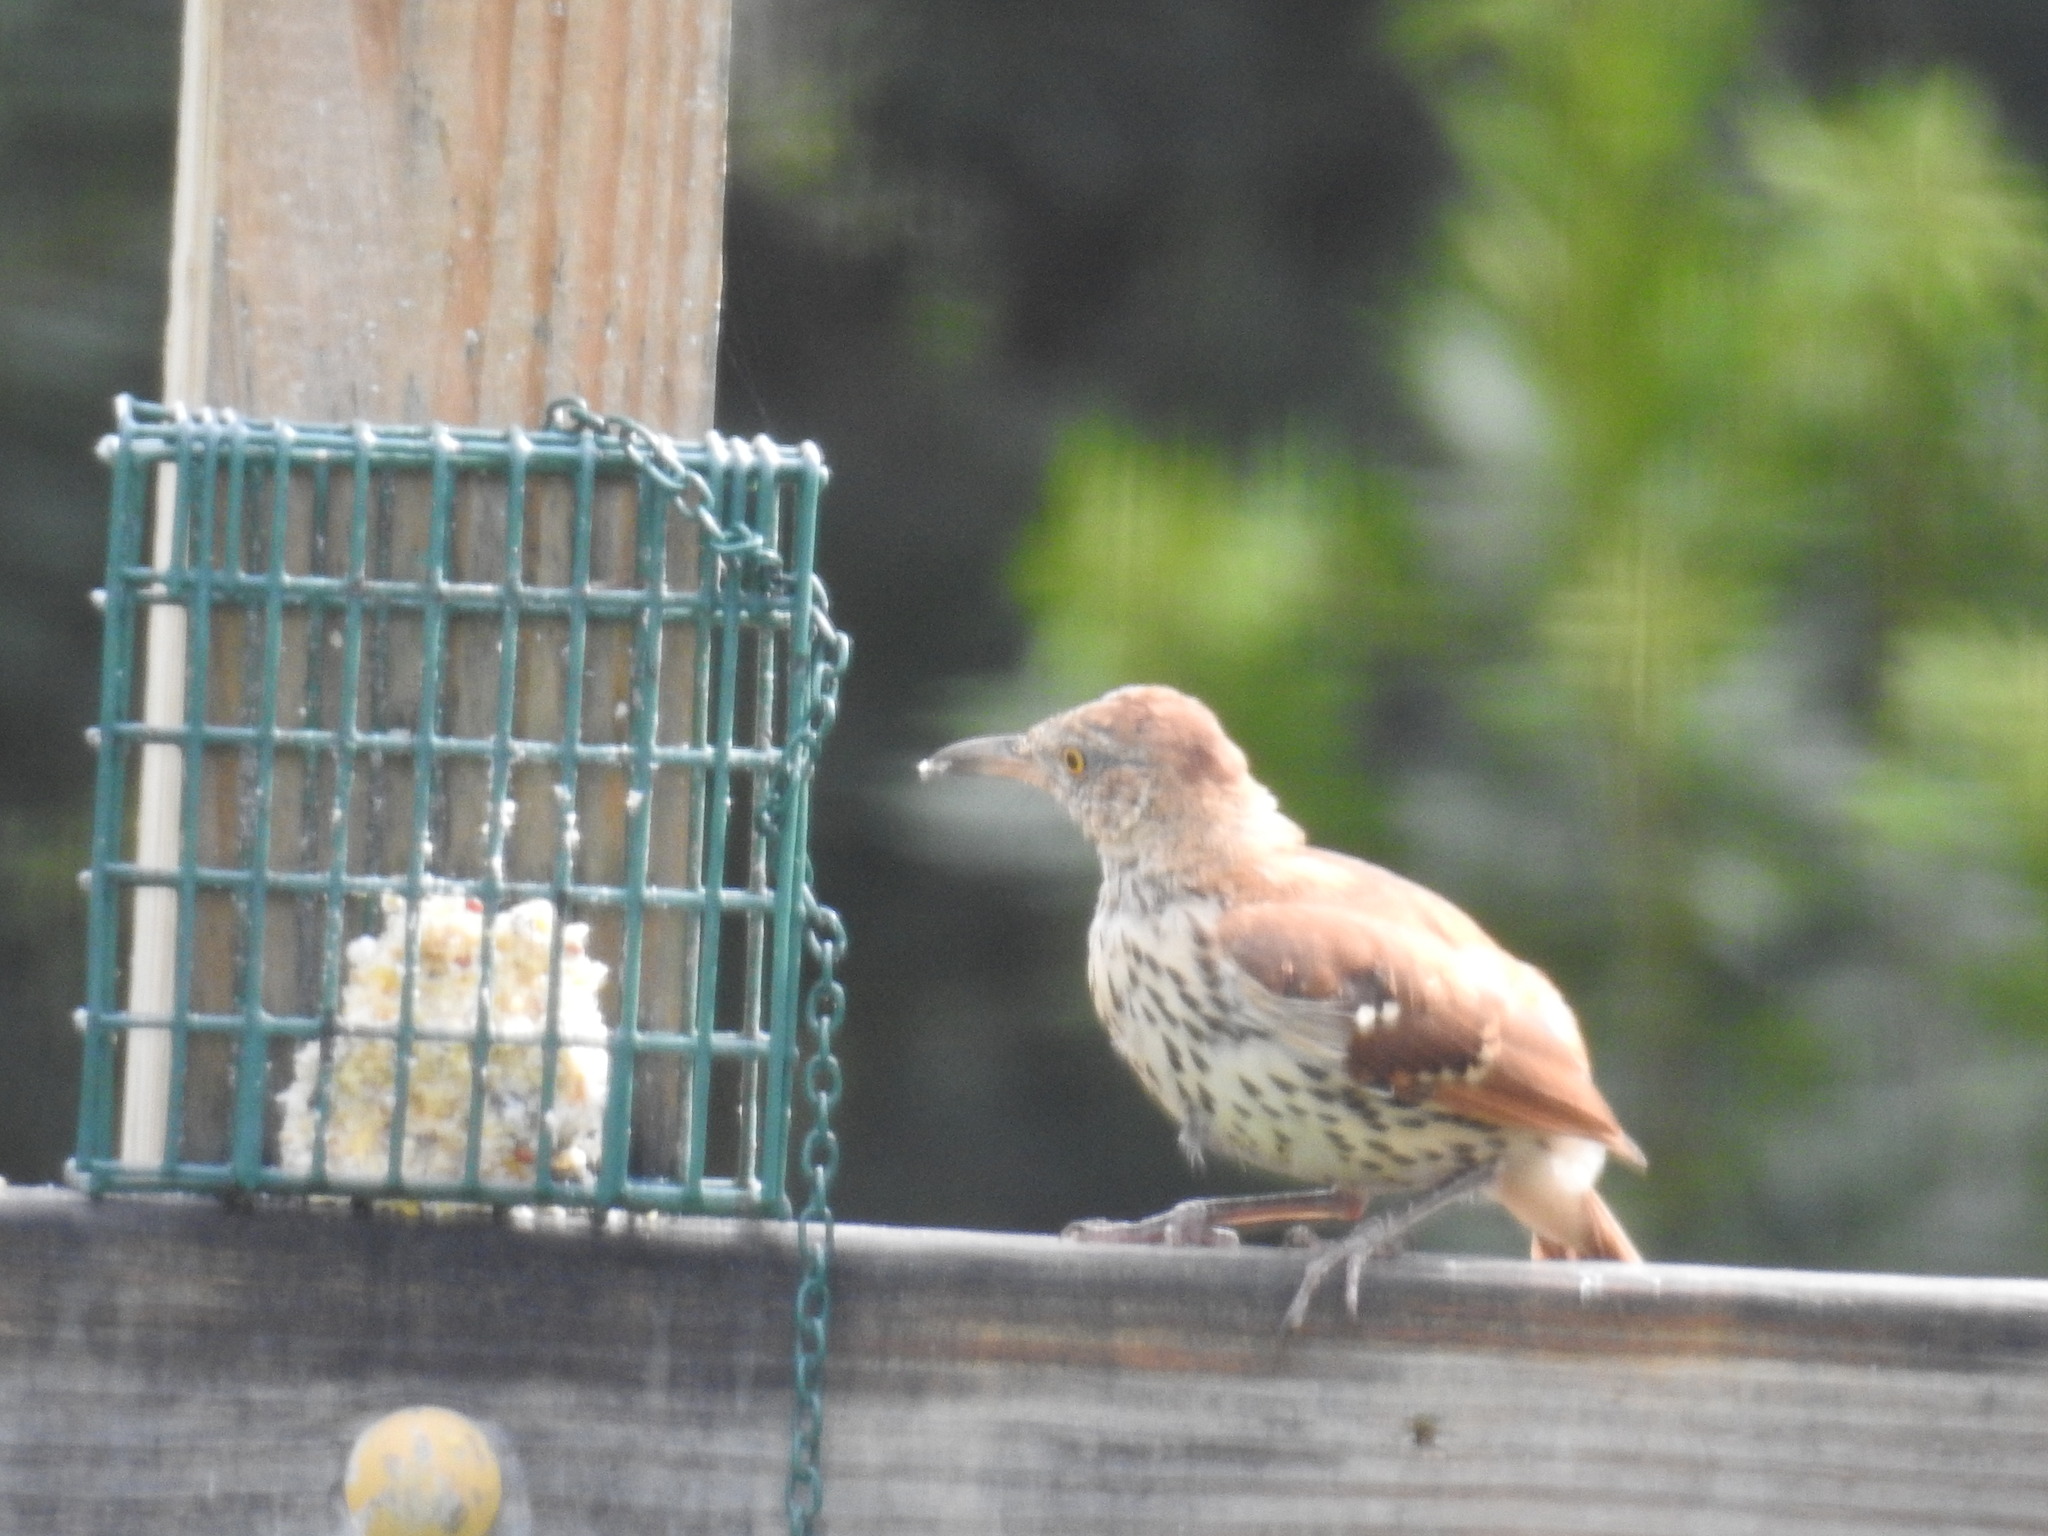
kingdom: Animalia
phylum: Chordata
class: Aves
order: Passeriformes
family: Mimidae
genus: Toxostoma
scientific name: Toxostoma rufum
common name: Brown thrasher
